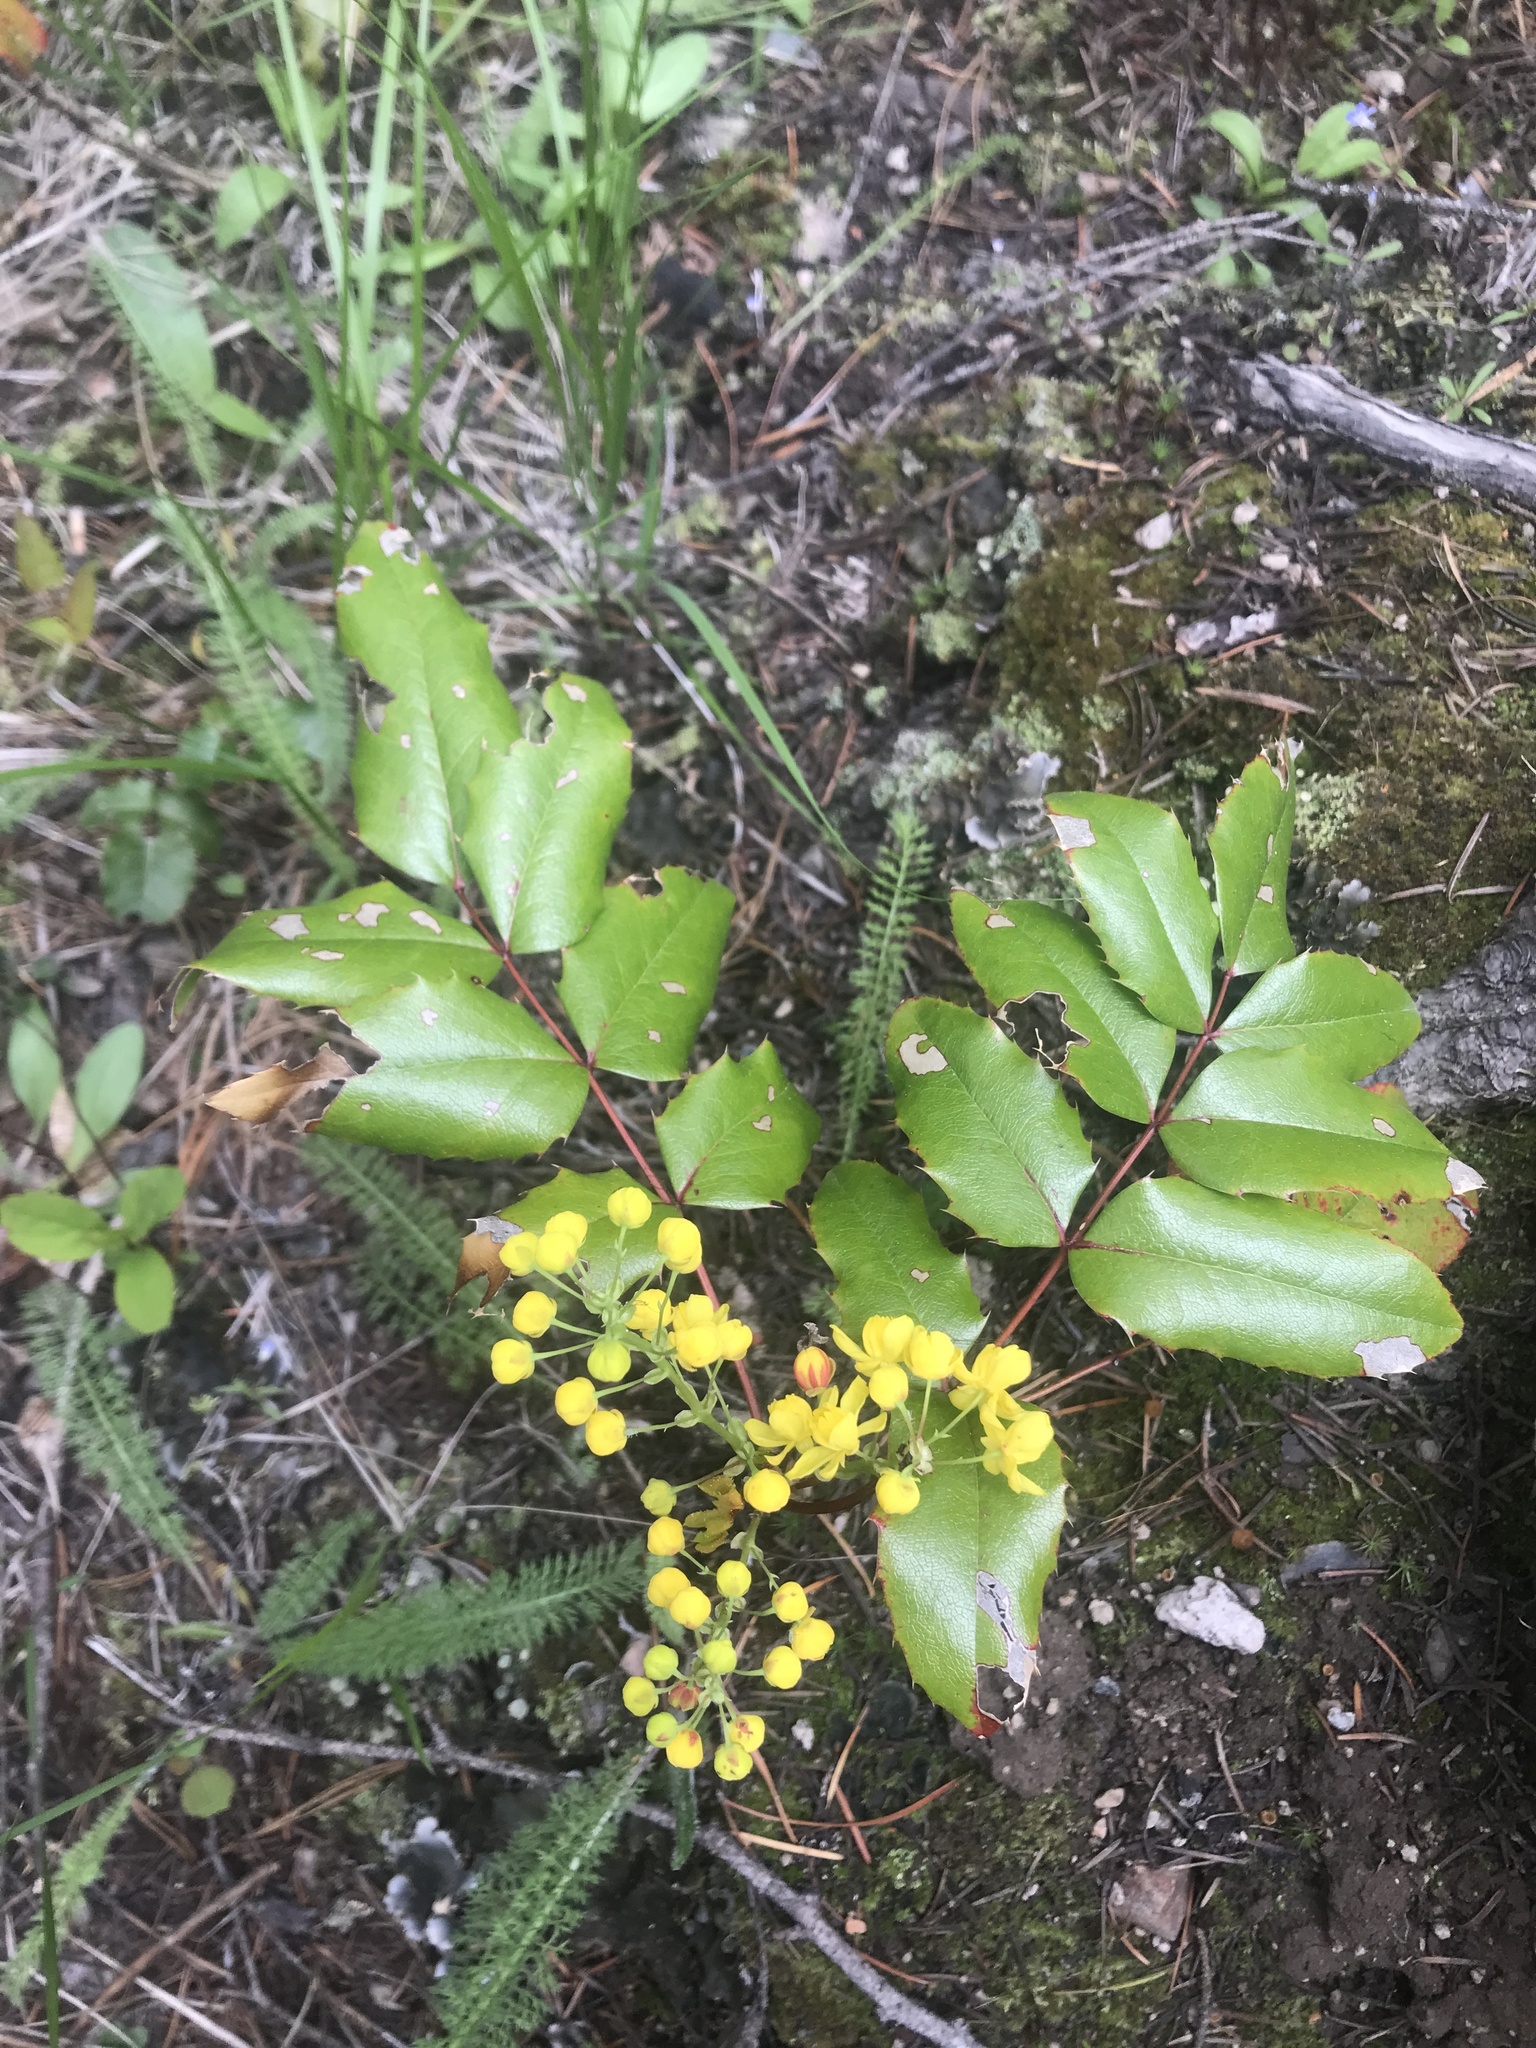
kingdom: Plantae
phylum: Tracheophyta
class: Magnoliopsida
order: Ranunculales
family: Berberidaceae
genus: Mahonia
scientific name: Mahonia aquifolium
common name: Oregon-grape
